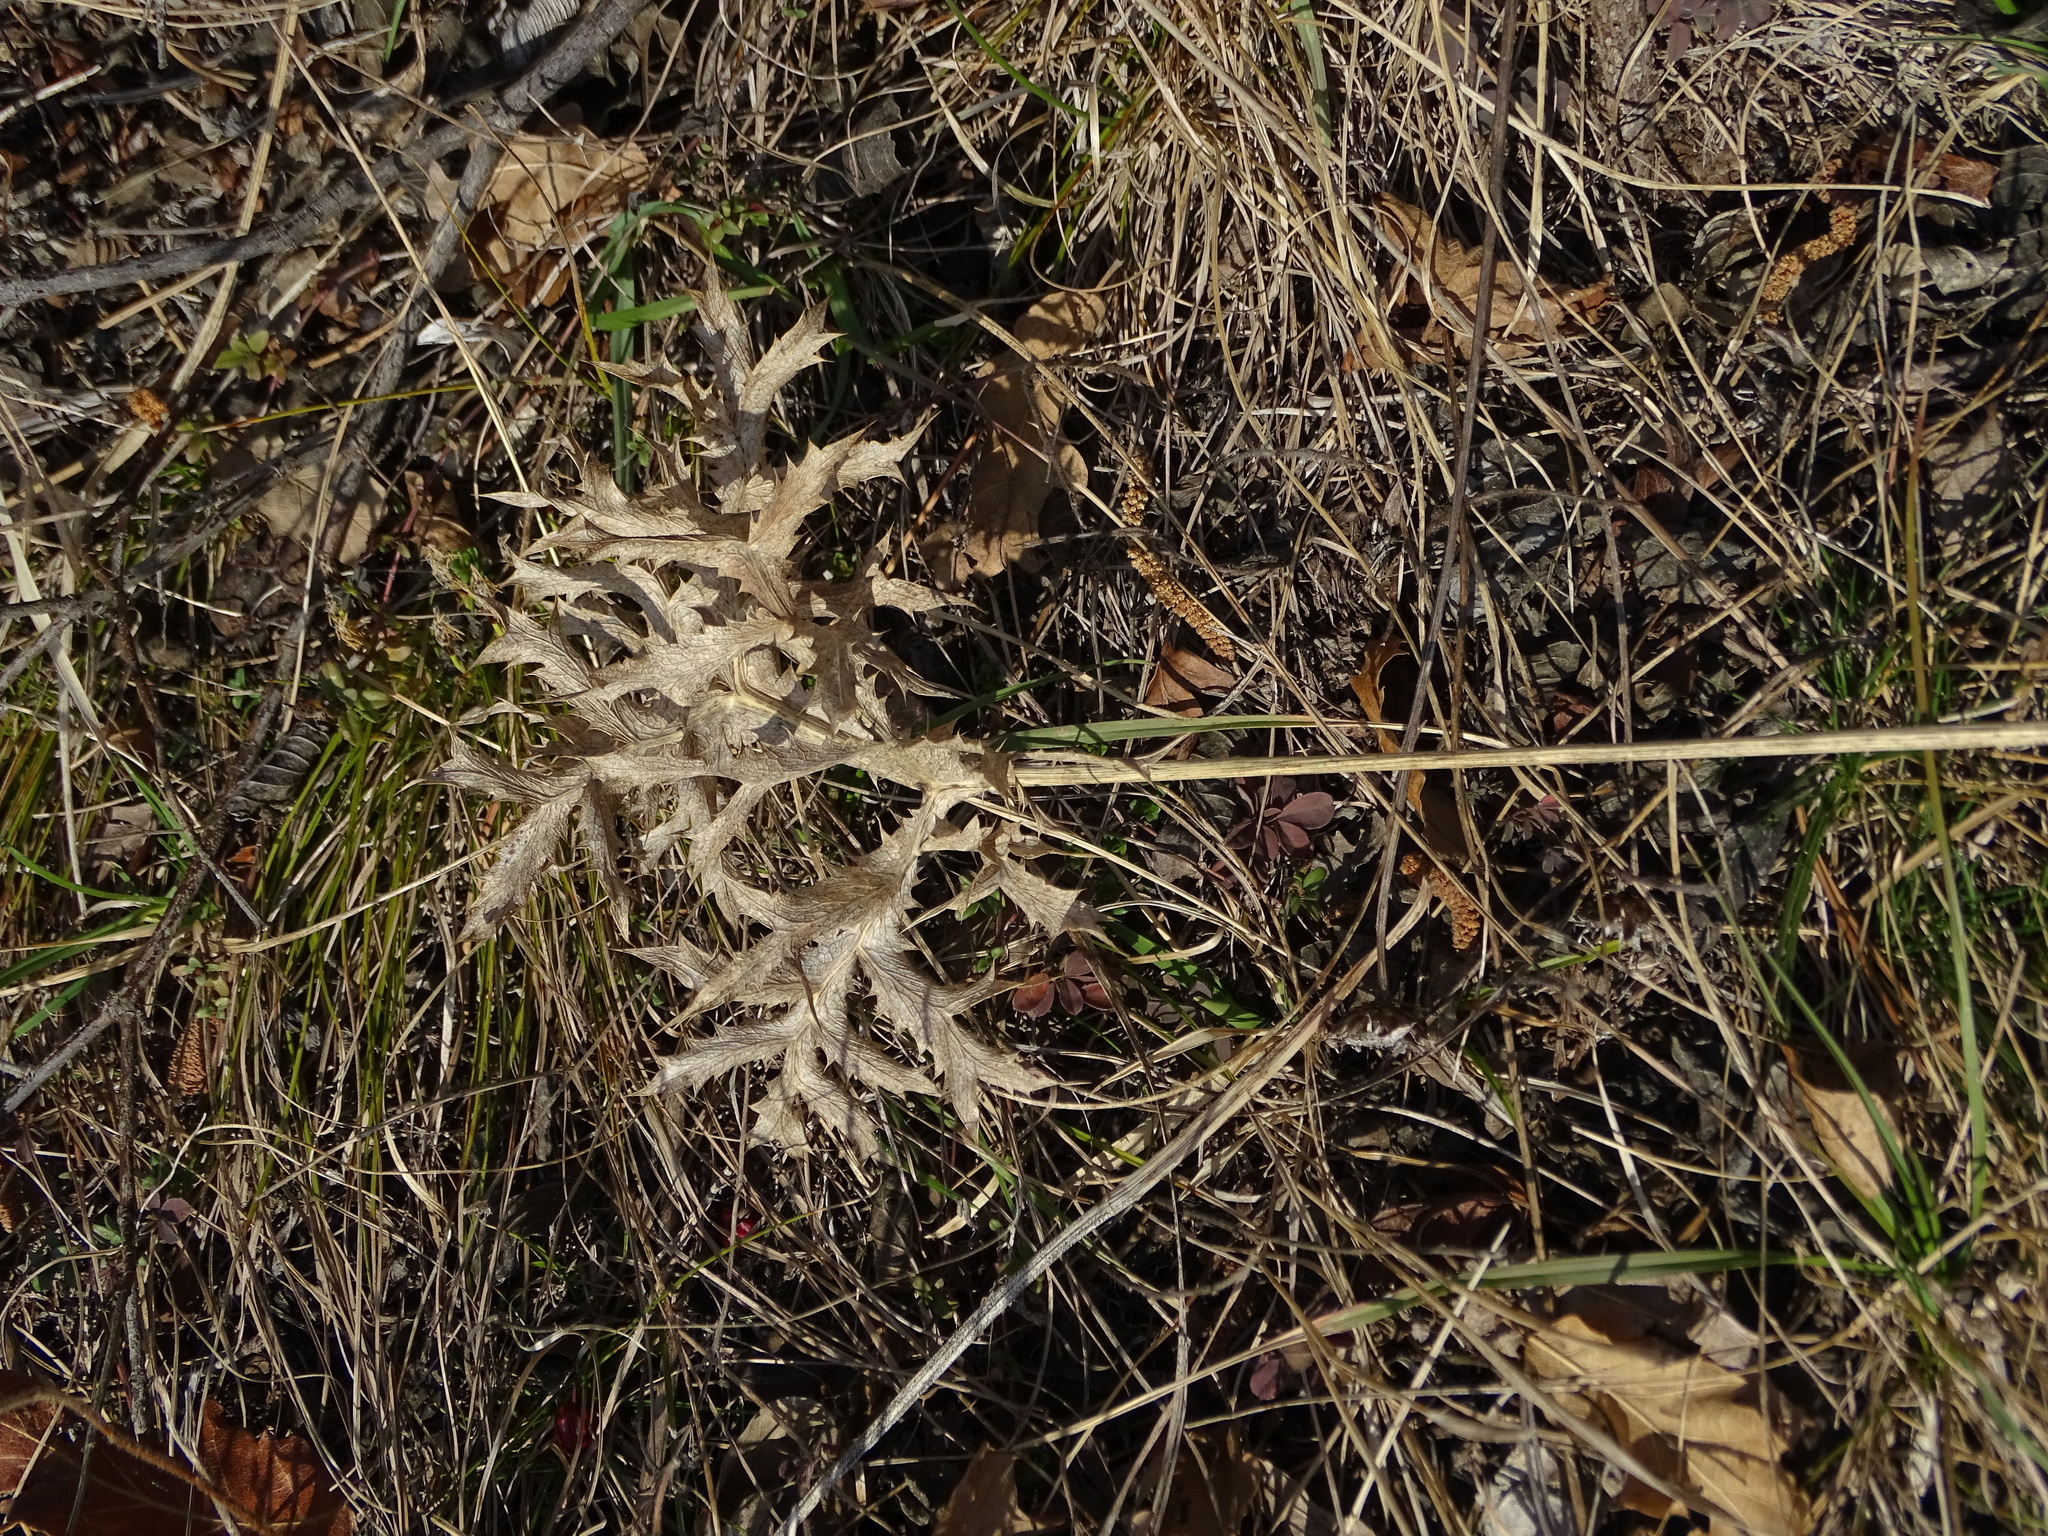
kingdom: Plantae
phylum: Tracheophyta
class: Magnoliopsida
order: Apiales
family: Apiaceae
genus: Eryngium
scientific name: Eryngium campestre
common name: Field eryngo
